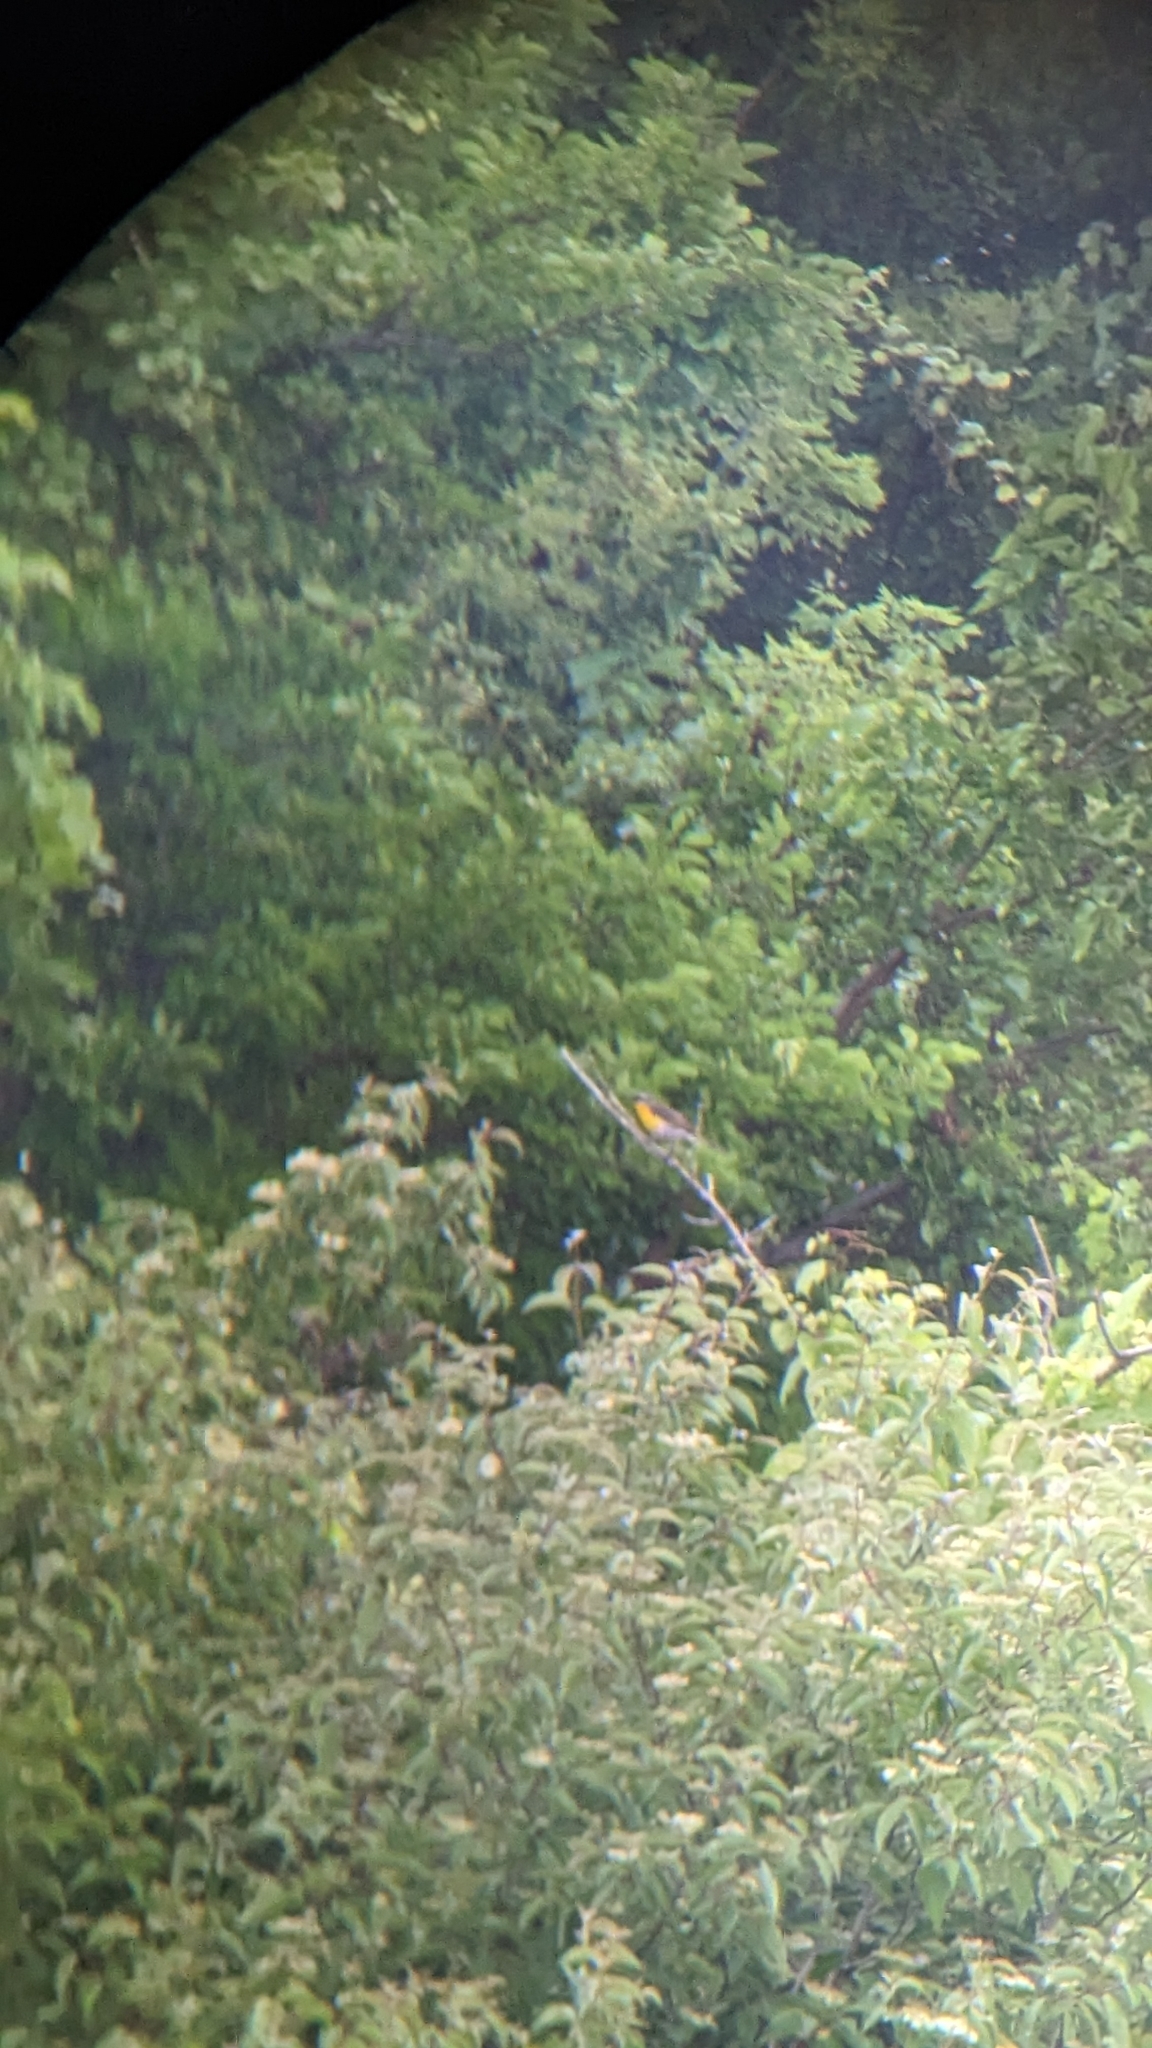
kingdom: Animalia
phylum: Chordata
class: Aves
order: Passeriformes
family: Parulidae
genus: Icteria
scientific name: Icteria virens
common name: Yellow-breasted chat
